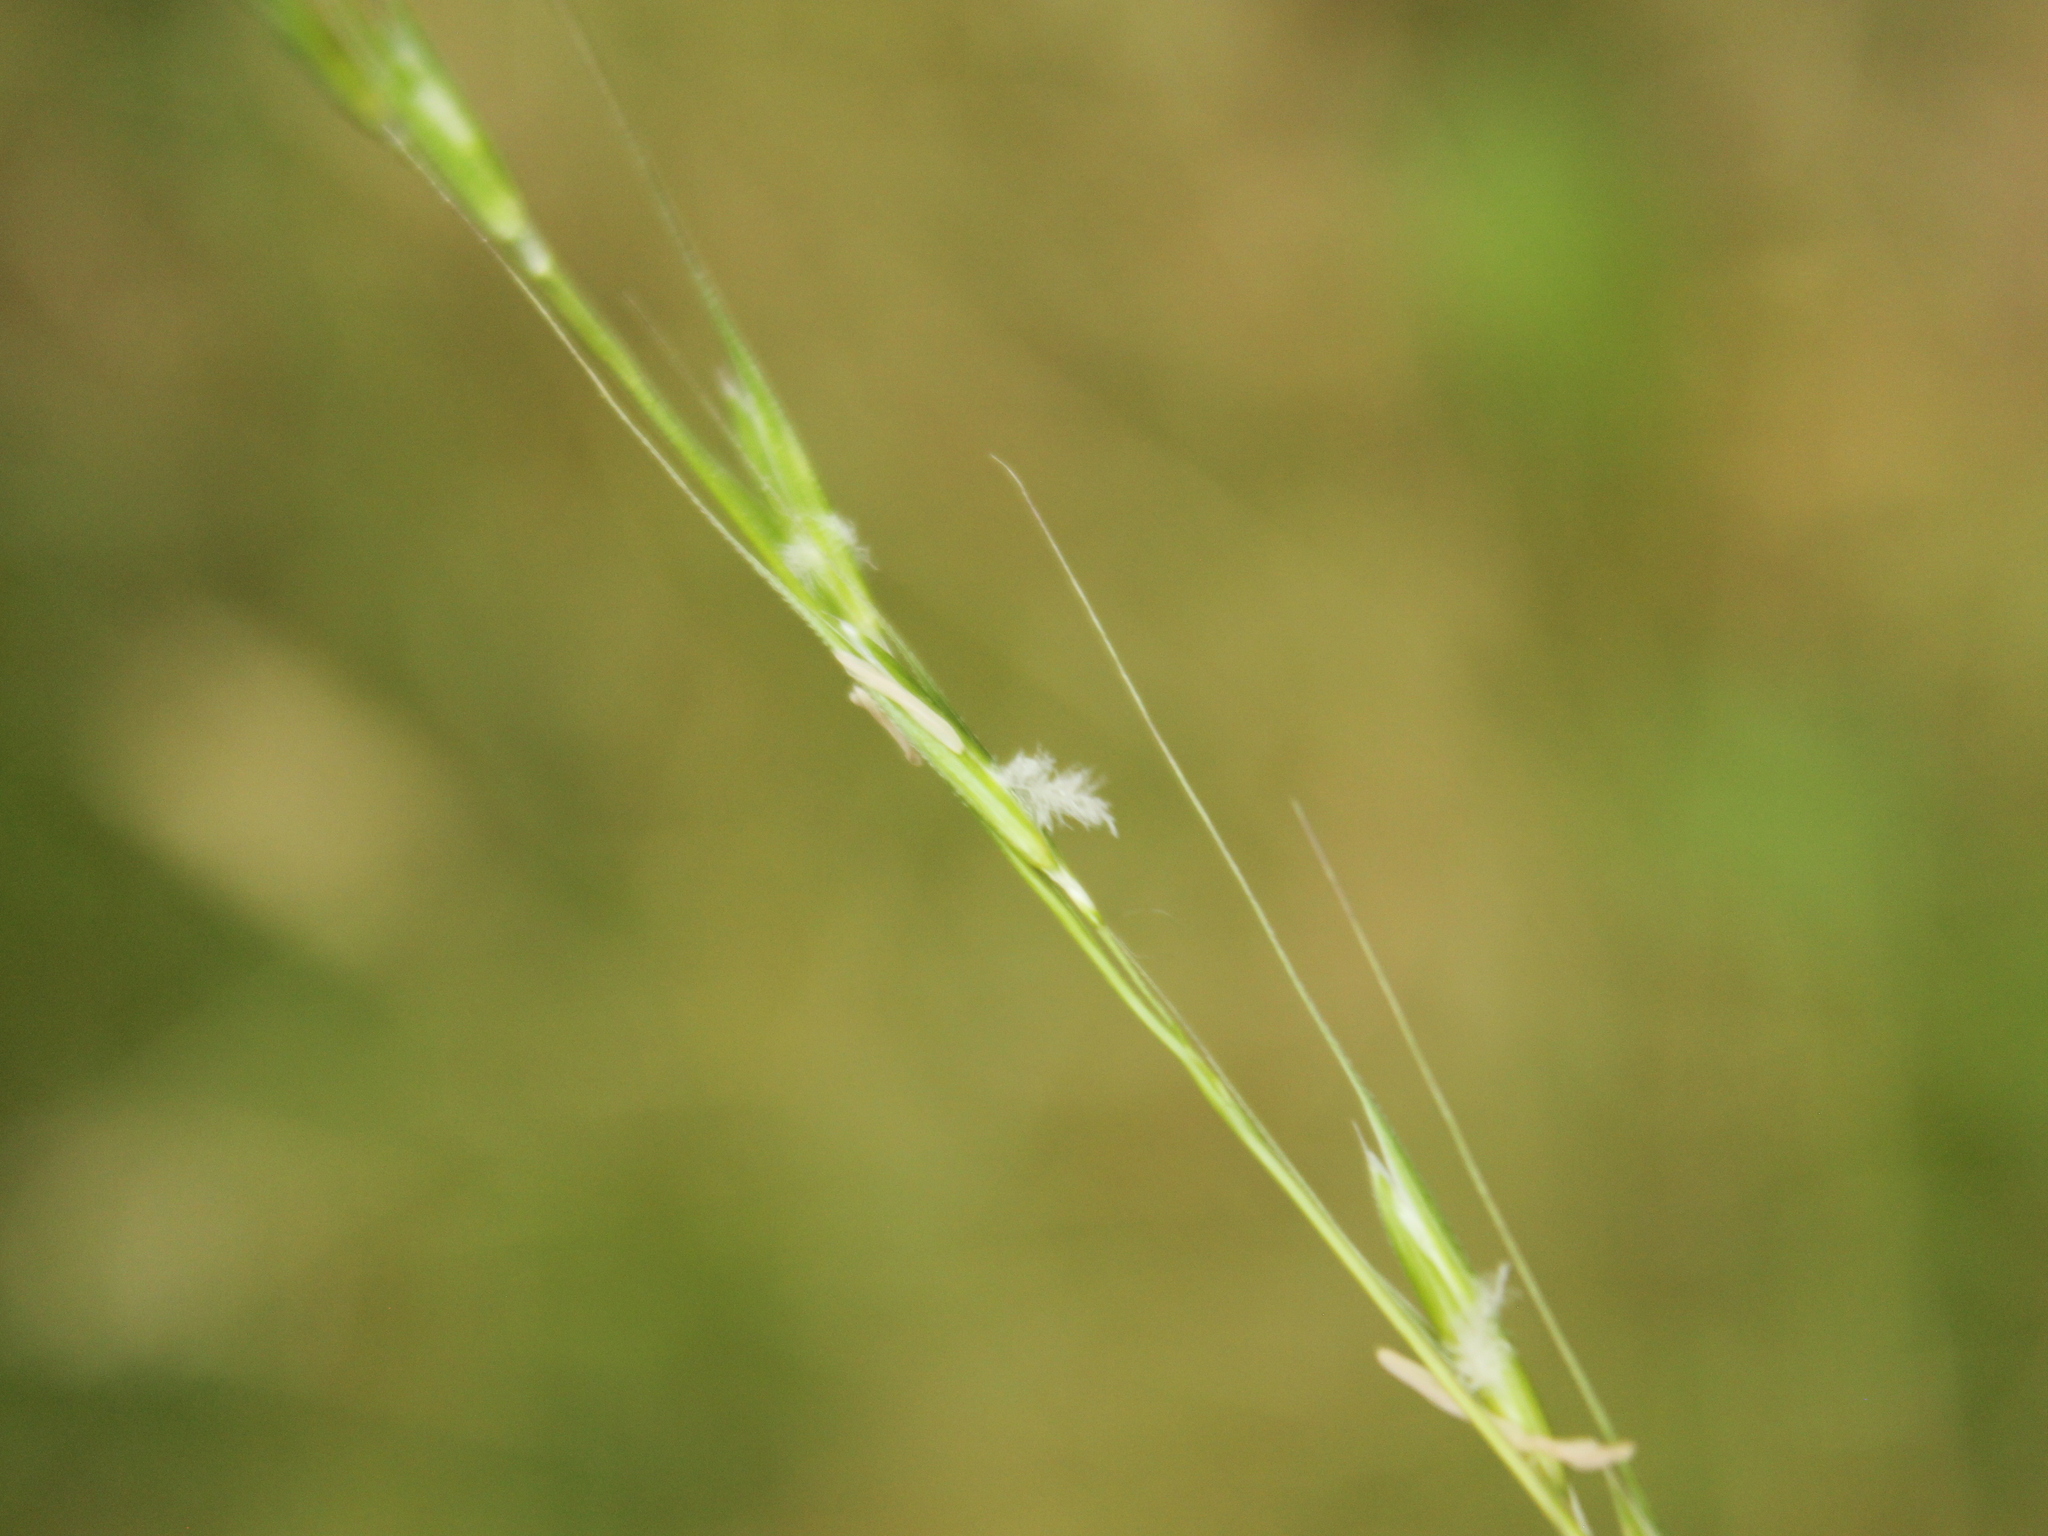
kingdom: Plantae
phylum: Tracheophyta
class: Liliopsida
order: Poales
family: Poaceae
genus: Microlaena
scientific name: Microlaena stipoides
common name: Meadow ricegrass
